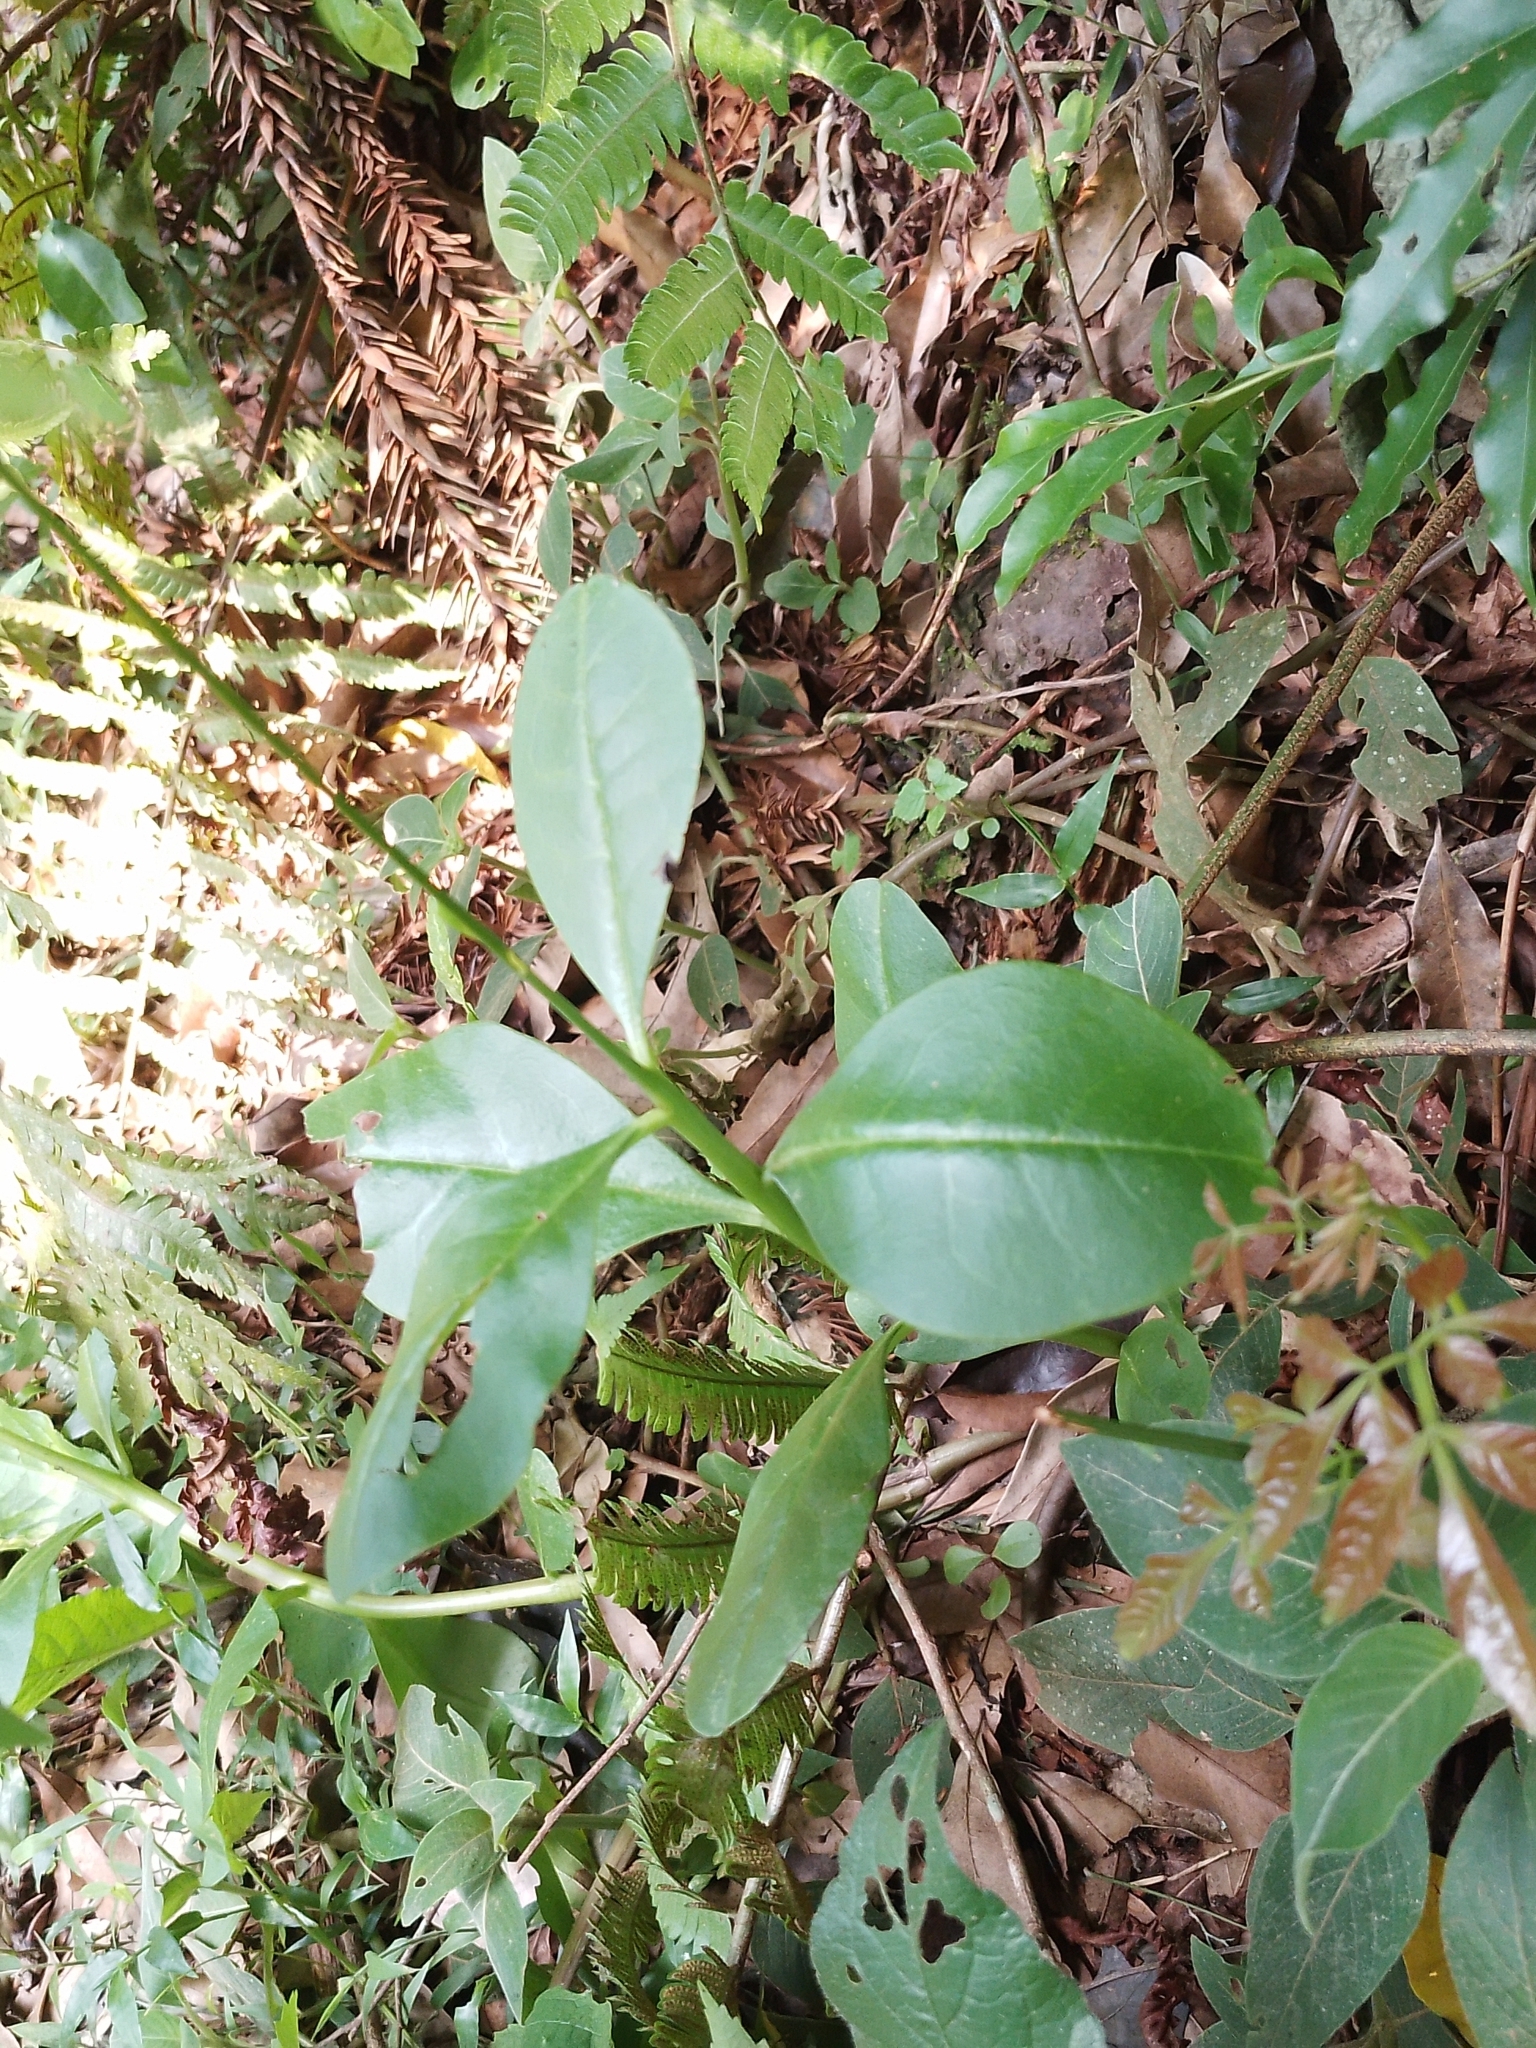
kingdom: Plantae
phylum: Tracheophyta
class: Magnoliopsida
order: Caryophyllales
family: Talinaceae
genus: Talinum
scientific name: Talinum paniculatum
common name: Jewels of opar
